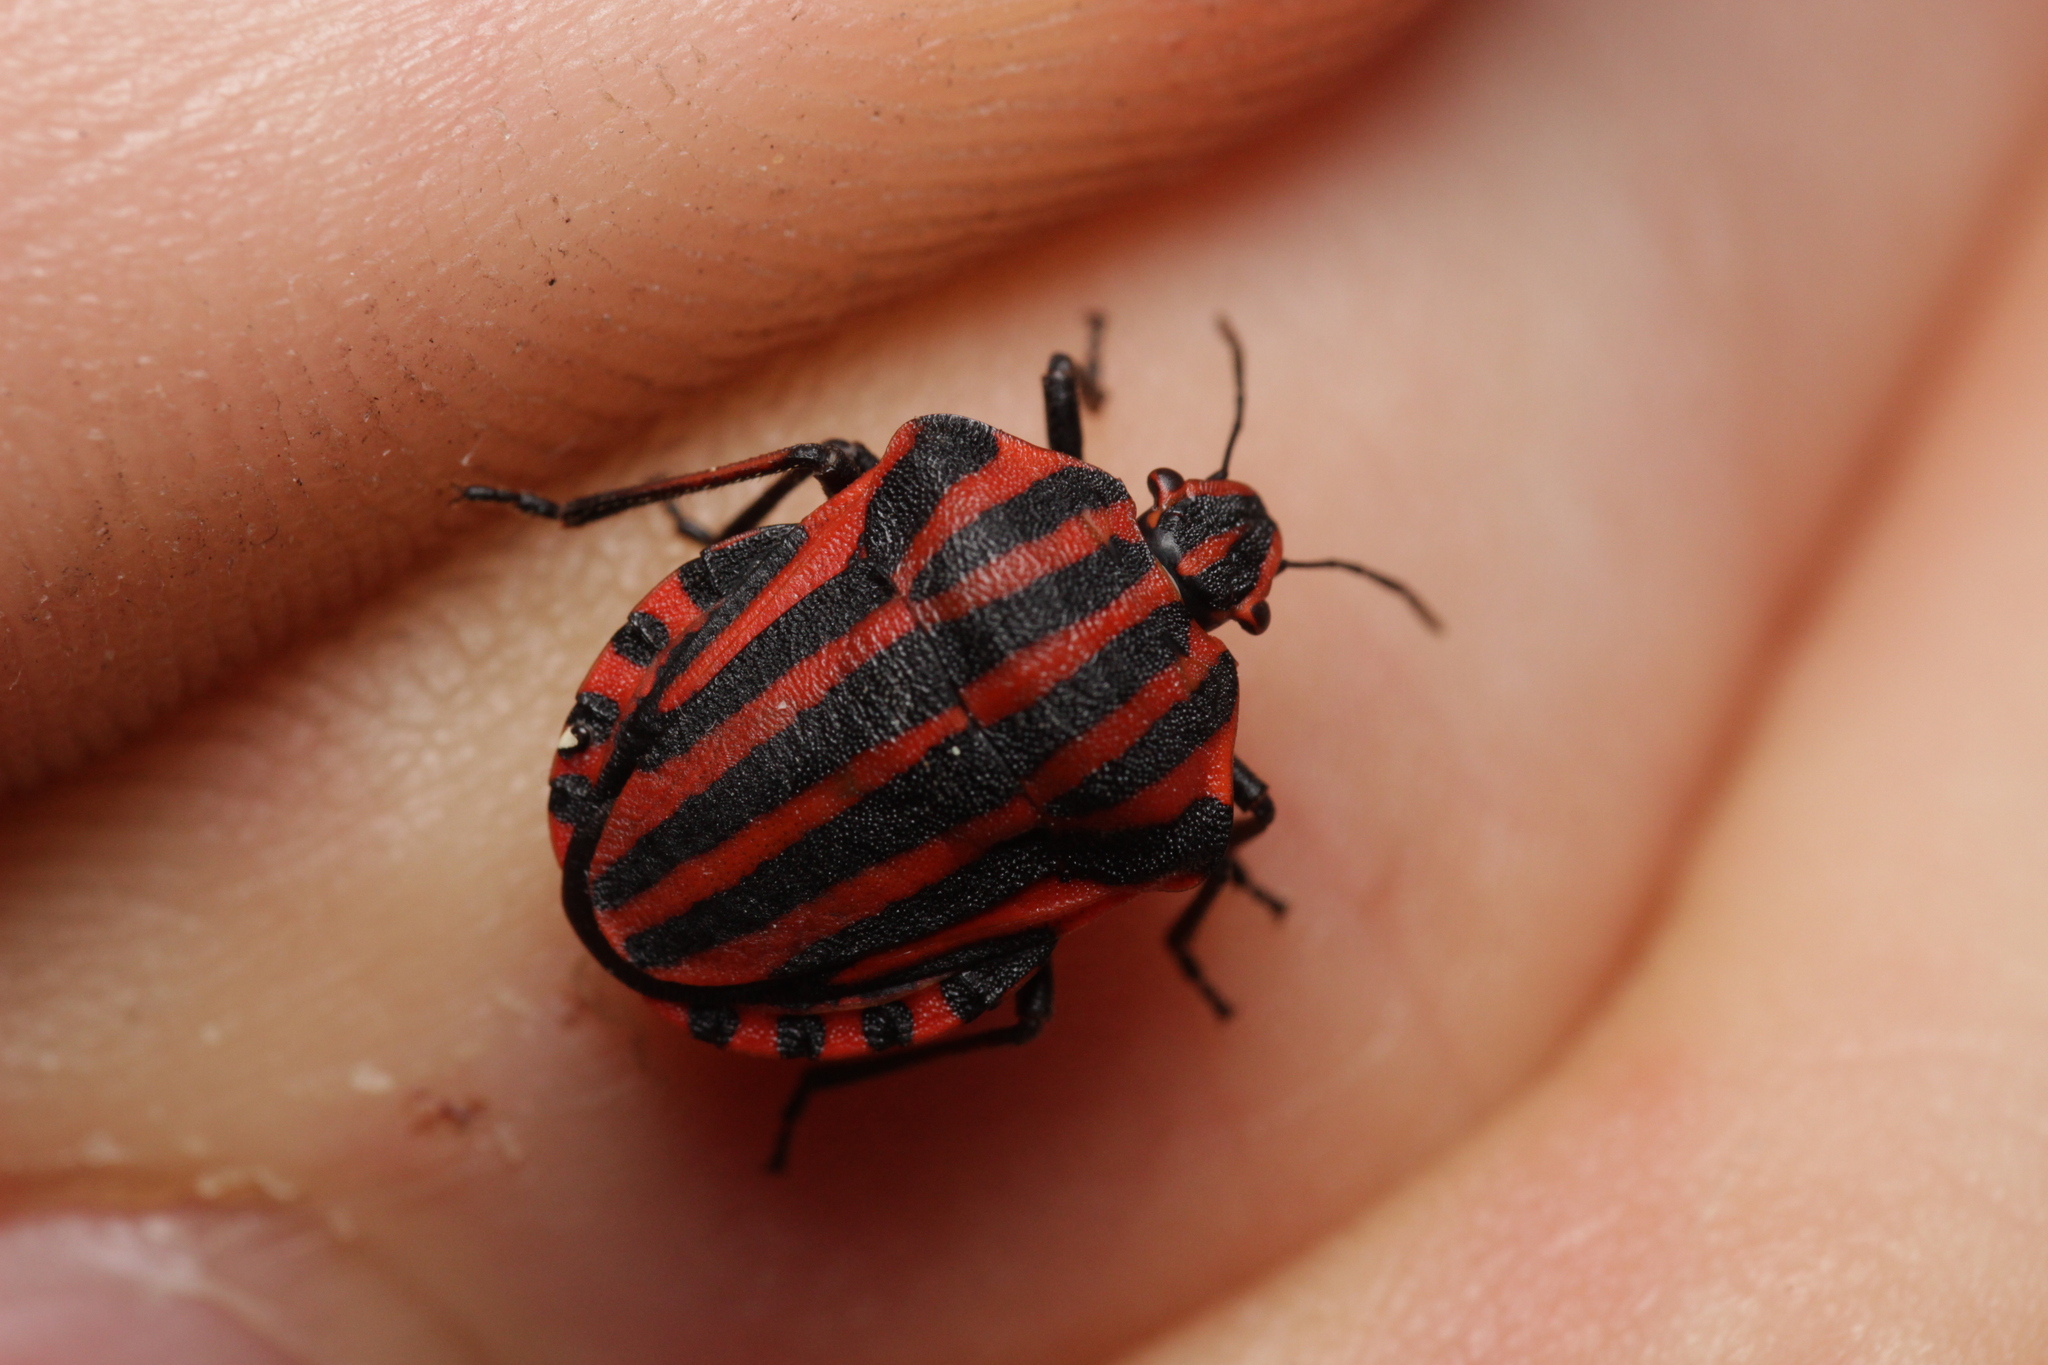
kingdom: Animalia
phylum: Arthropoda
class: Insecta
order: Hemiptera
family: Pentatomidae
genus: Graphosoma
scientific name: Graphosoma italicum
